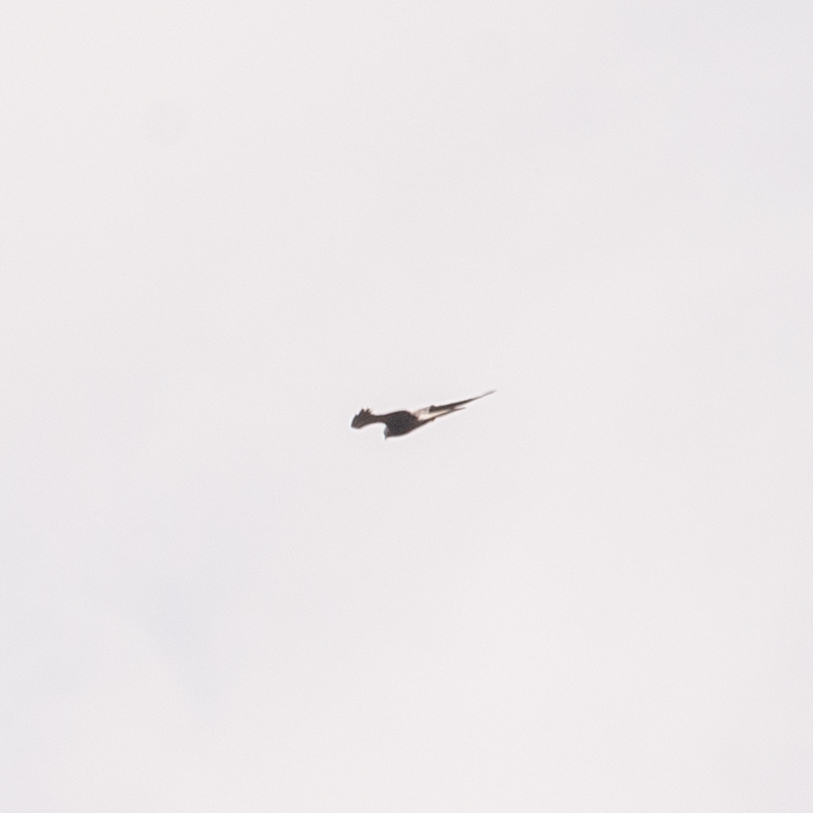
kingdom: Animalia
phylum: Chordata
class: Aves
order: Accipitriformes
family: Accipitridae
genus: Circus
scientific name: Circus pygargus
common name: Montagu's harrier
